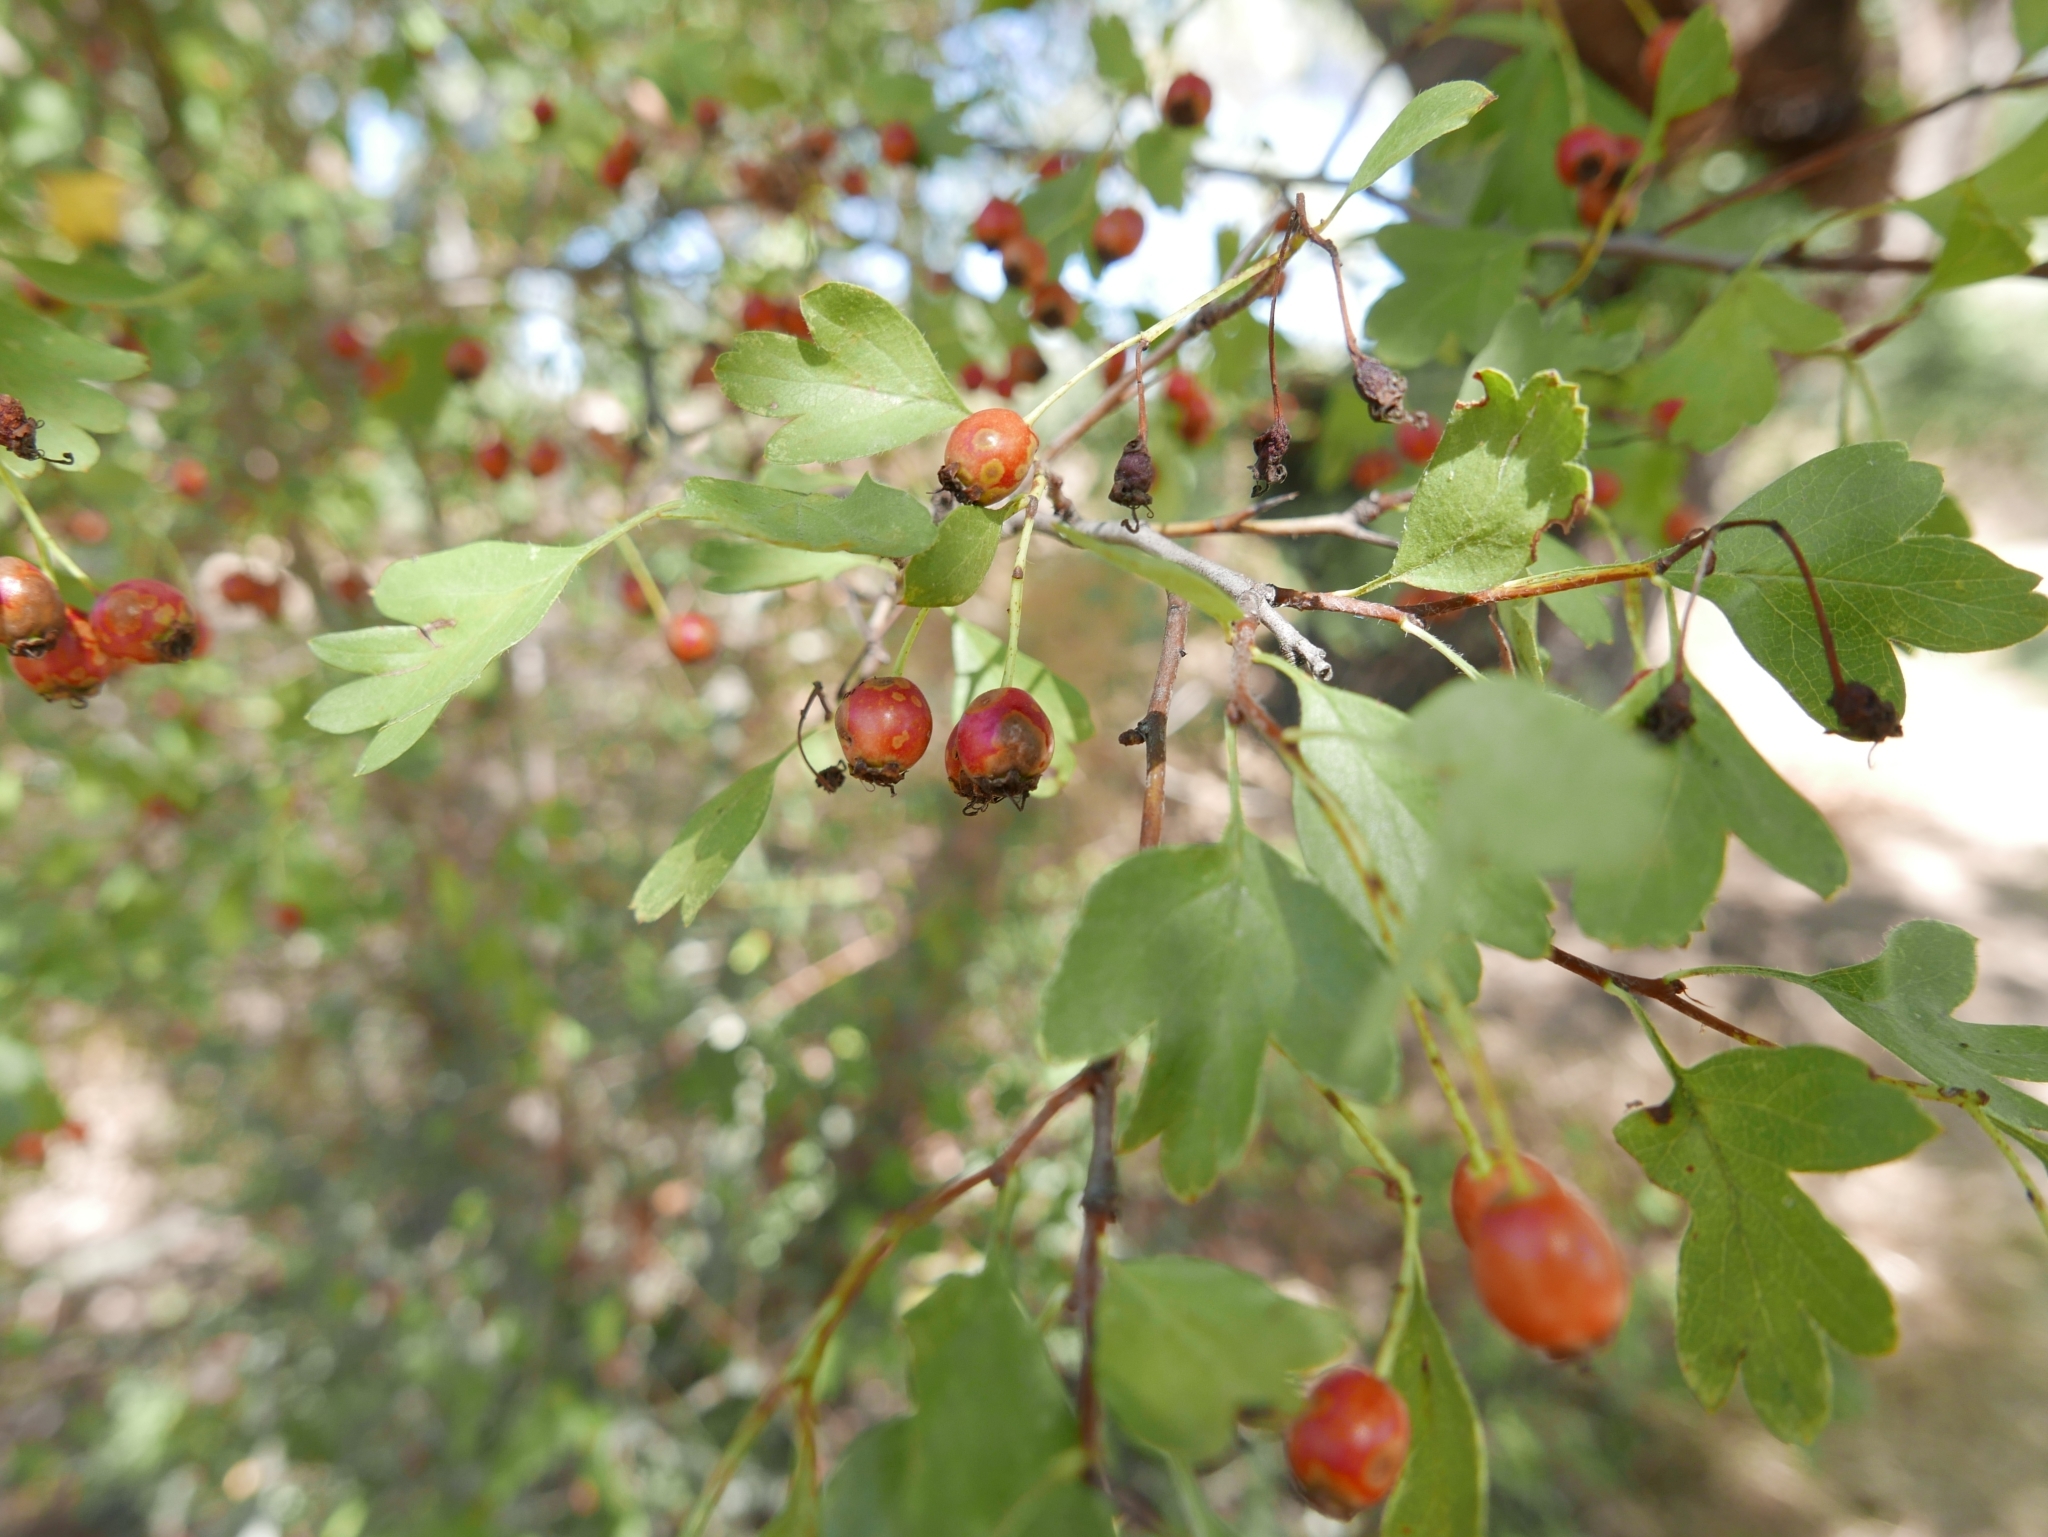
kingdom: Plantae
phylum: Tracheophyta
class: Magnoliopsida
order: Rosales
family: Rosaceae
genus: Crataegus
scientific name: Crataegus monogyna
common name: Hawthorn
